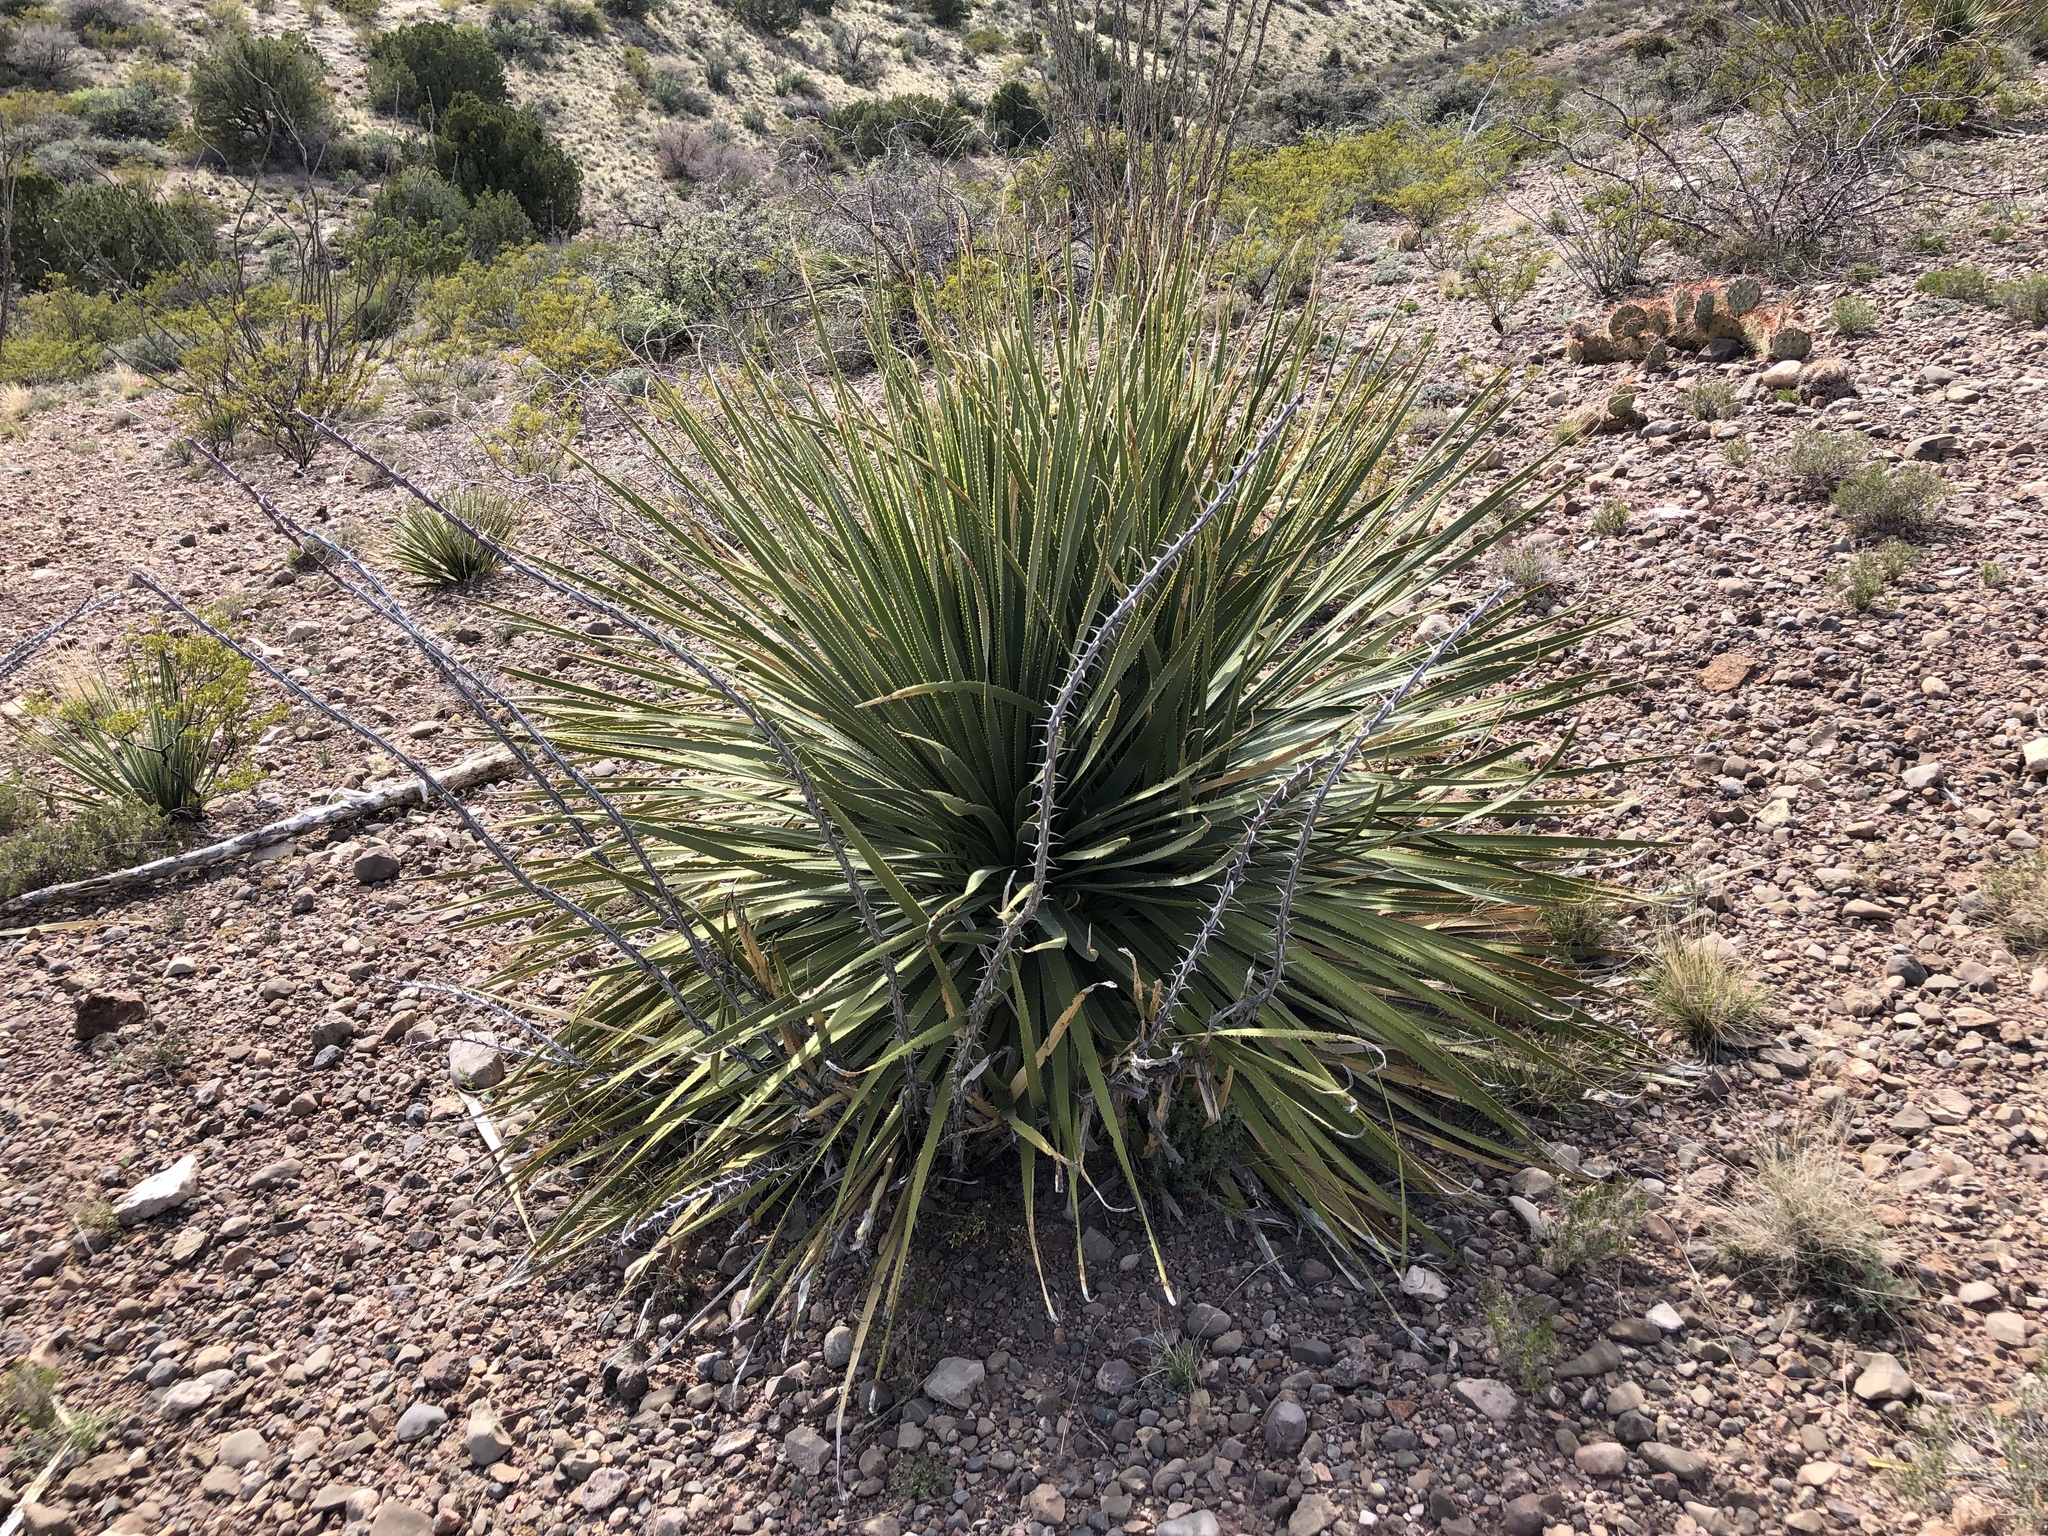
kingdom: Plantae
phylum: Tracheophyta
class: Liliopsida
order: Asparagales
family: Asparagaceae
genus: Dasylirion
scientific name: Dasylirion wheeleri
